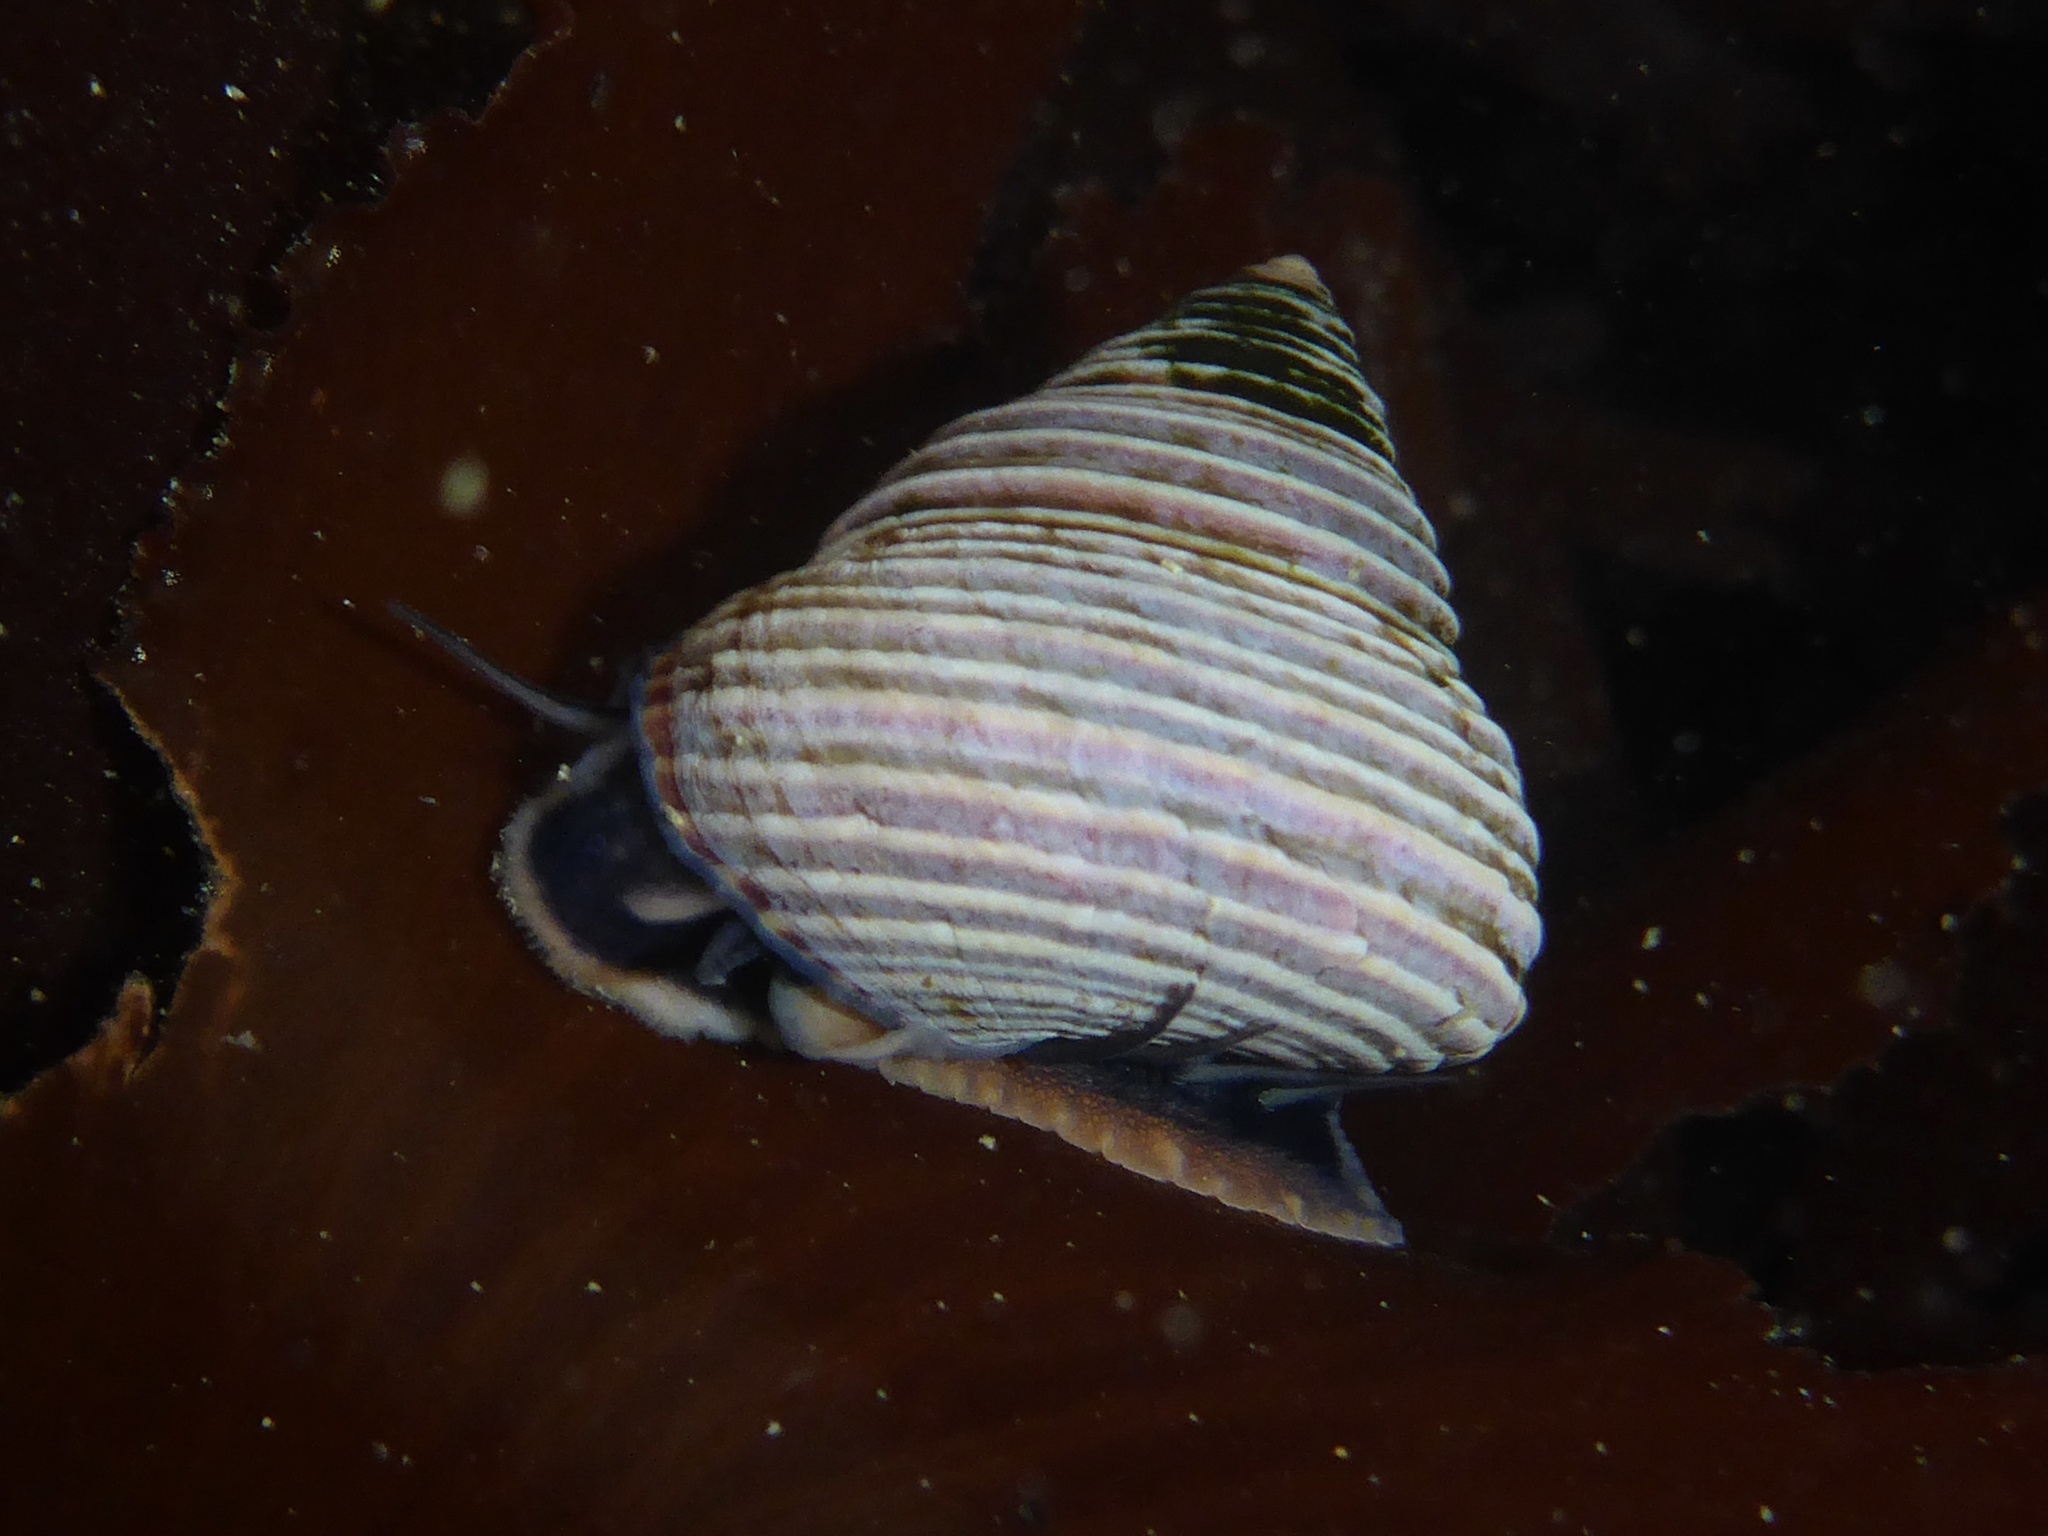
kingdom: Animalia
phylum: Mollusca
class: Gastropoda
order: Trochida
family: Calliostomatidae
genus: Calliostoma
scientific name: Calliostoma ligatum
